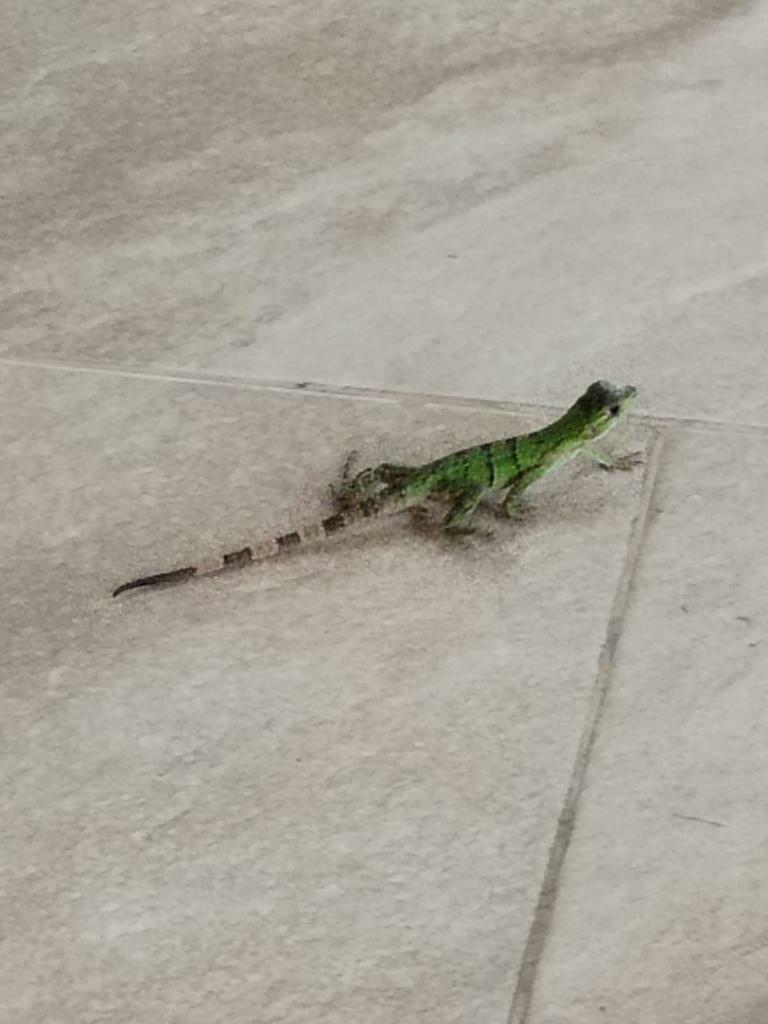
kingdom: Animalia
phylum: Chordata
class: Squamata
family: Iguanidae
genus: Ctenosaura
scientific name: Ctenosaura similis
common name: Black spiny-tailed iguana
